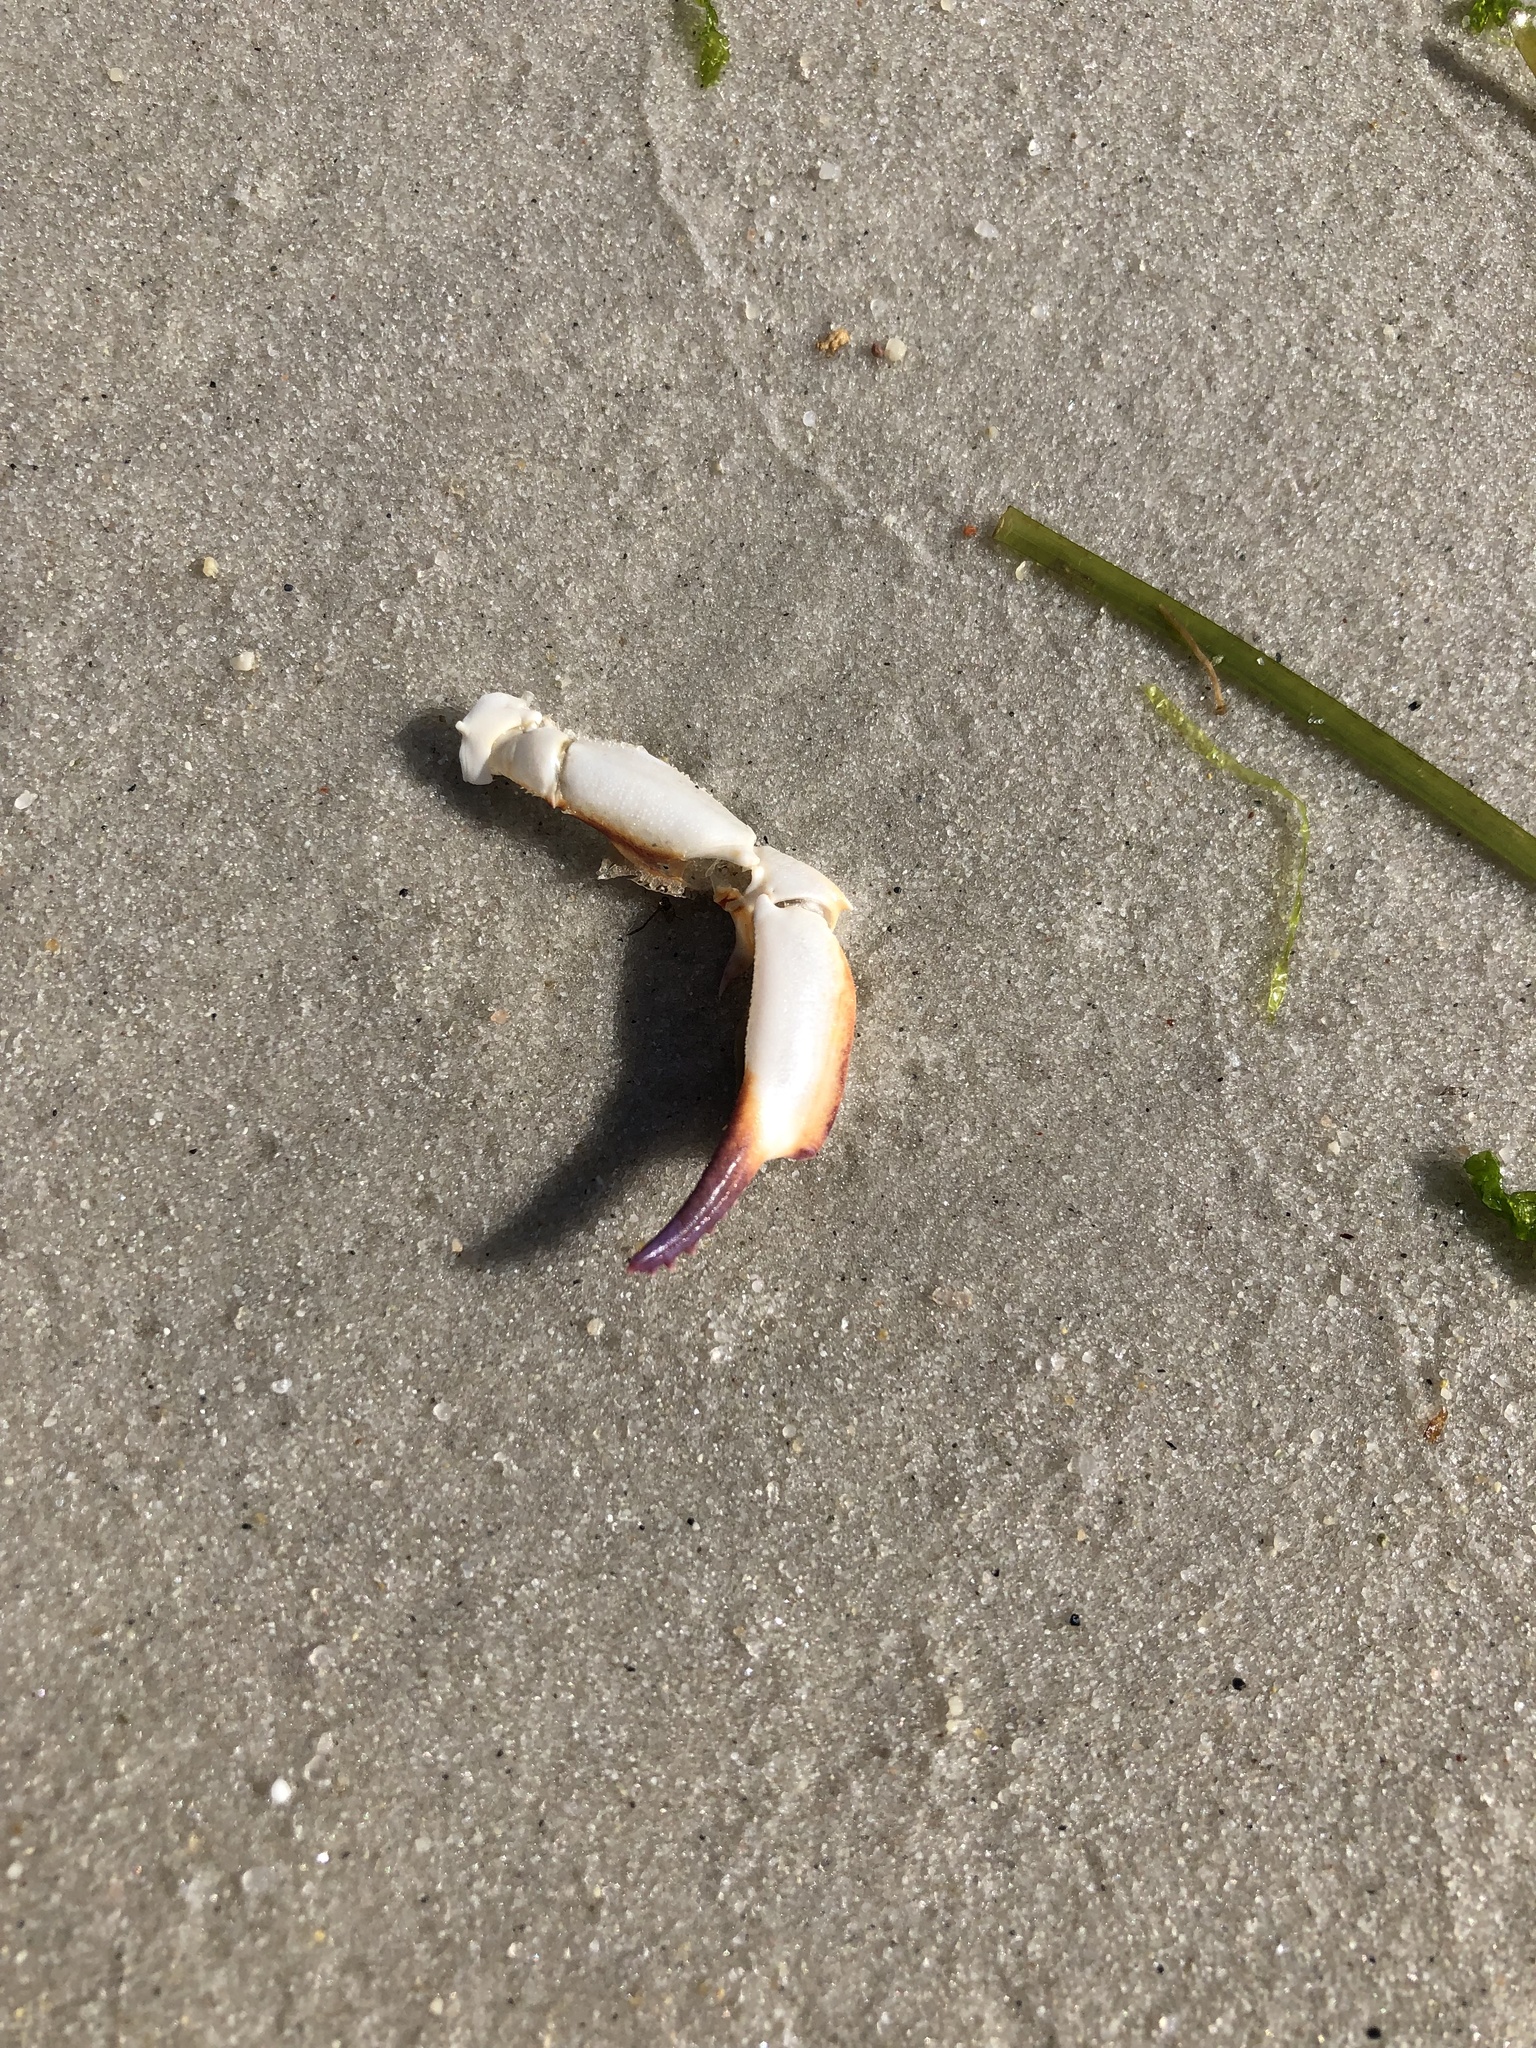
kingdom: Animalia
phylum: Arthropoda
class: Malacostraca
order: Decapoda
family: Ovalipidae
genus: Ovalipes
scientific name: Ovalipes ocellatus
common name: Lady crab
